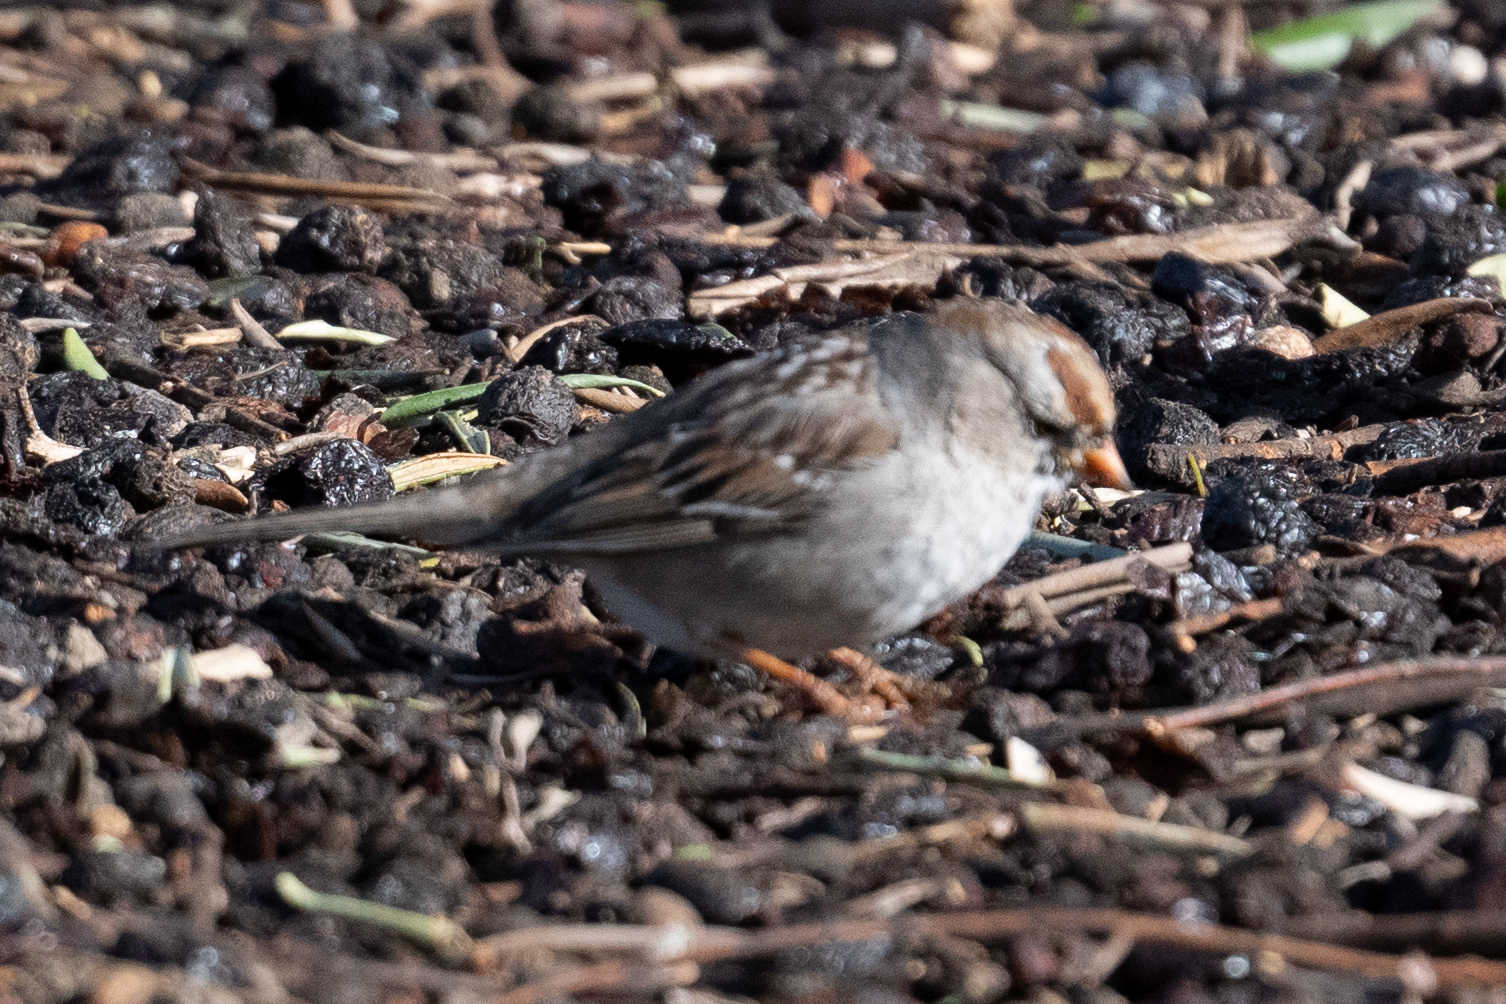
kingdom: Animalia
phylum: Chordata
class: Aves
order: Passeriformes
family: Passerellidae
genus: Zonotrichia
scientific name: Zonotrichia leucophrys
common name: White-crowned sparrow
